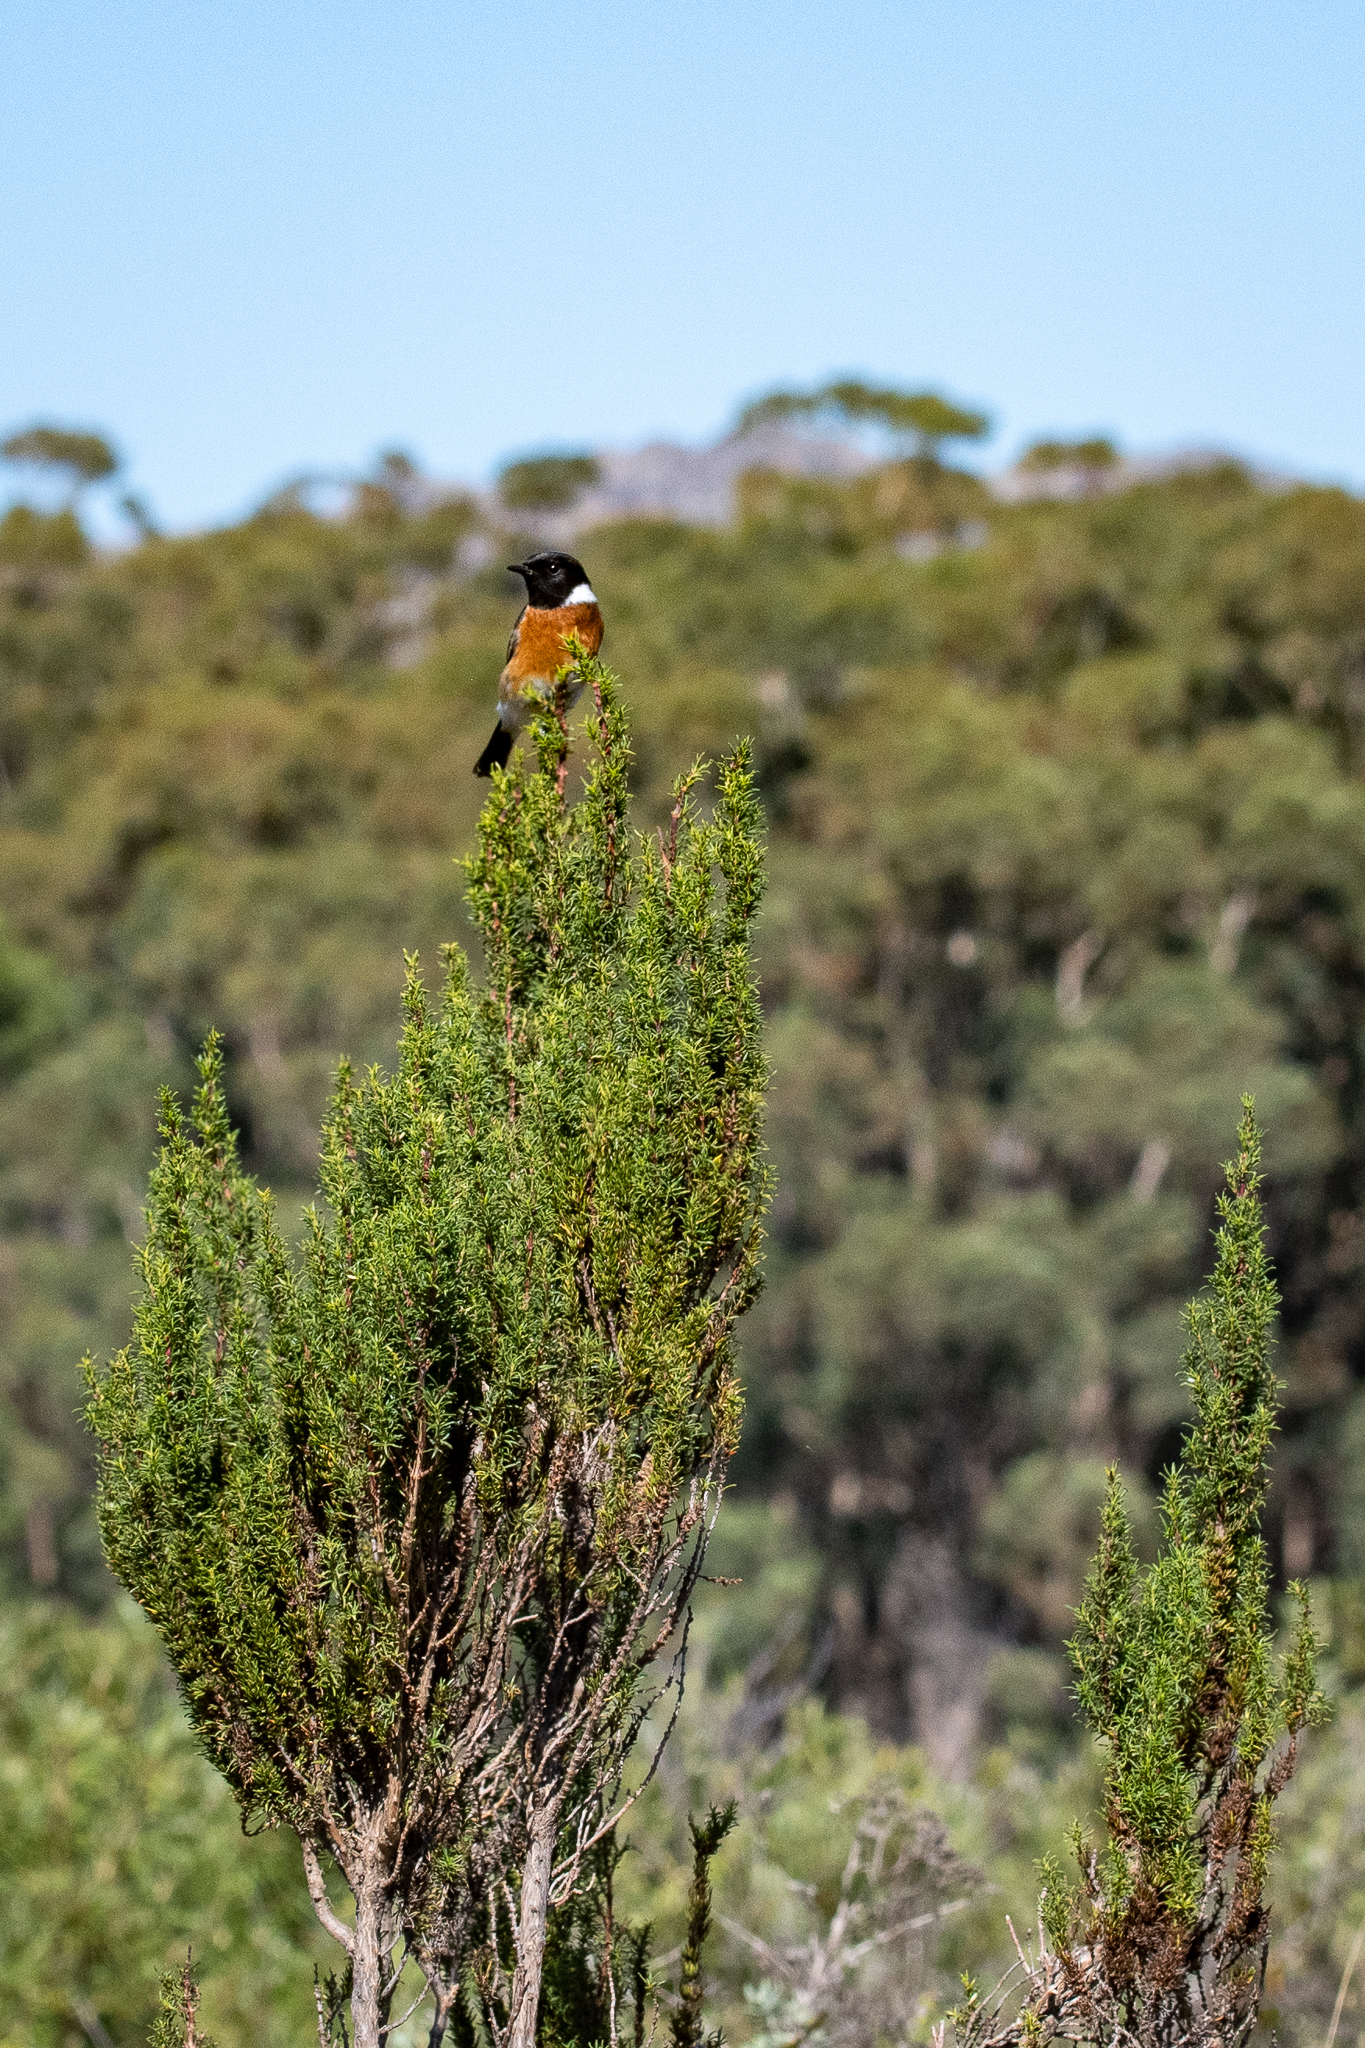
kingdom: Plantae
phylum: Tracheophyta
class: Magnoliopsida
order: Gentianales
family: Rubiaceae
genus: Anthospermum
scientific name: Anthospermum aethiopicum
